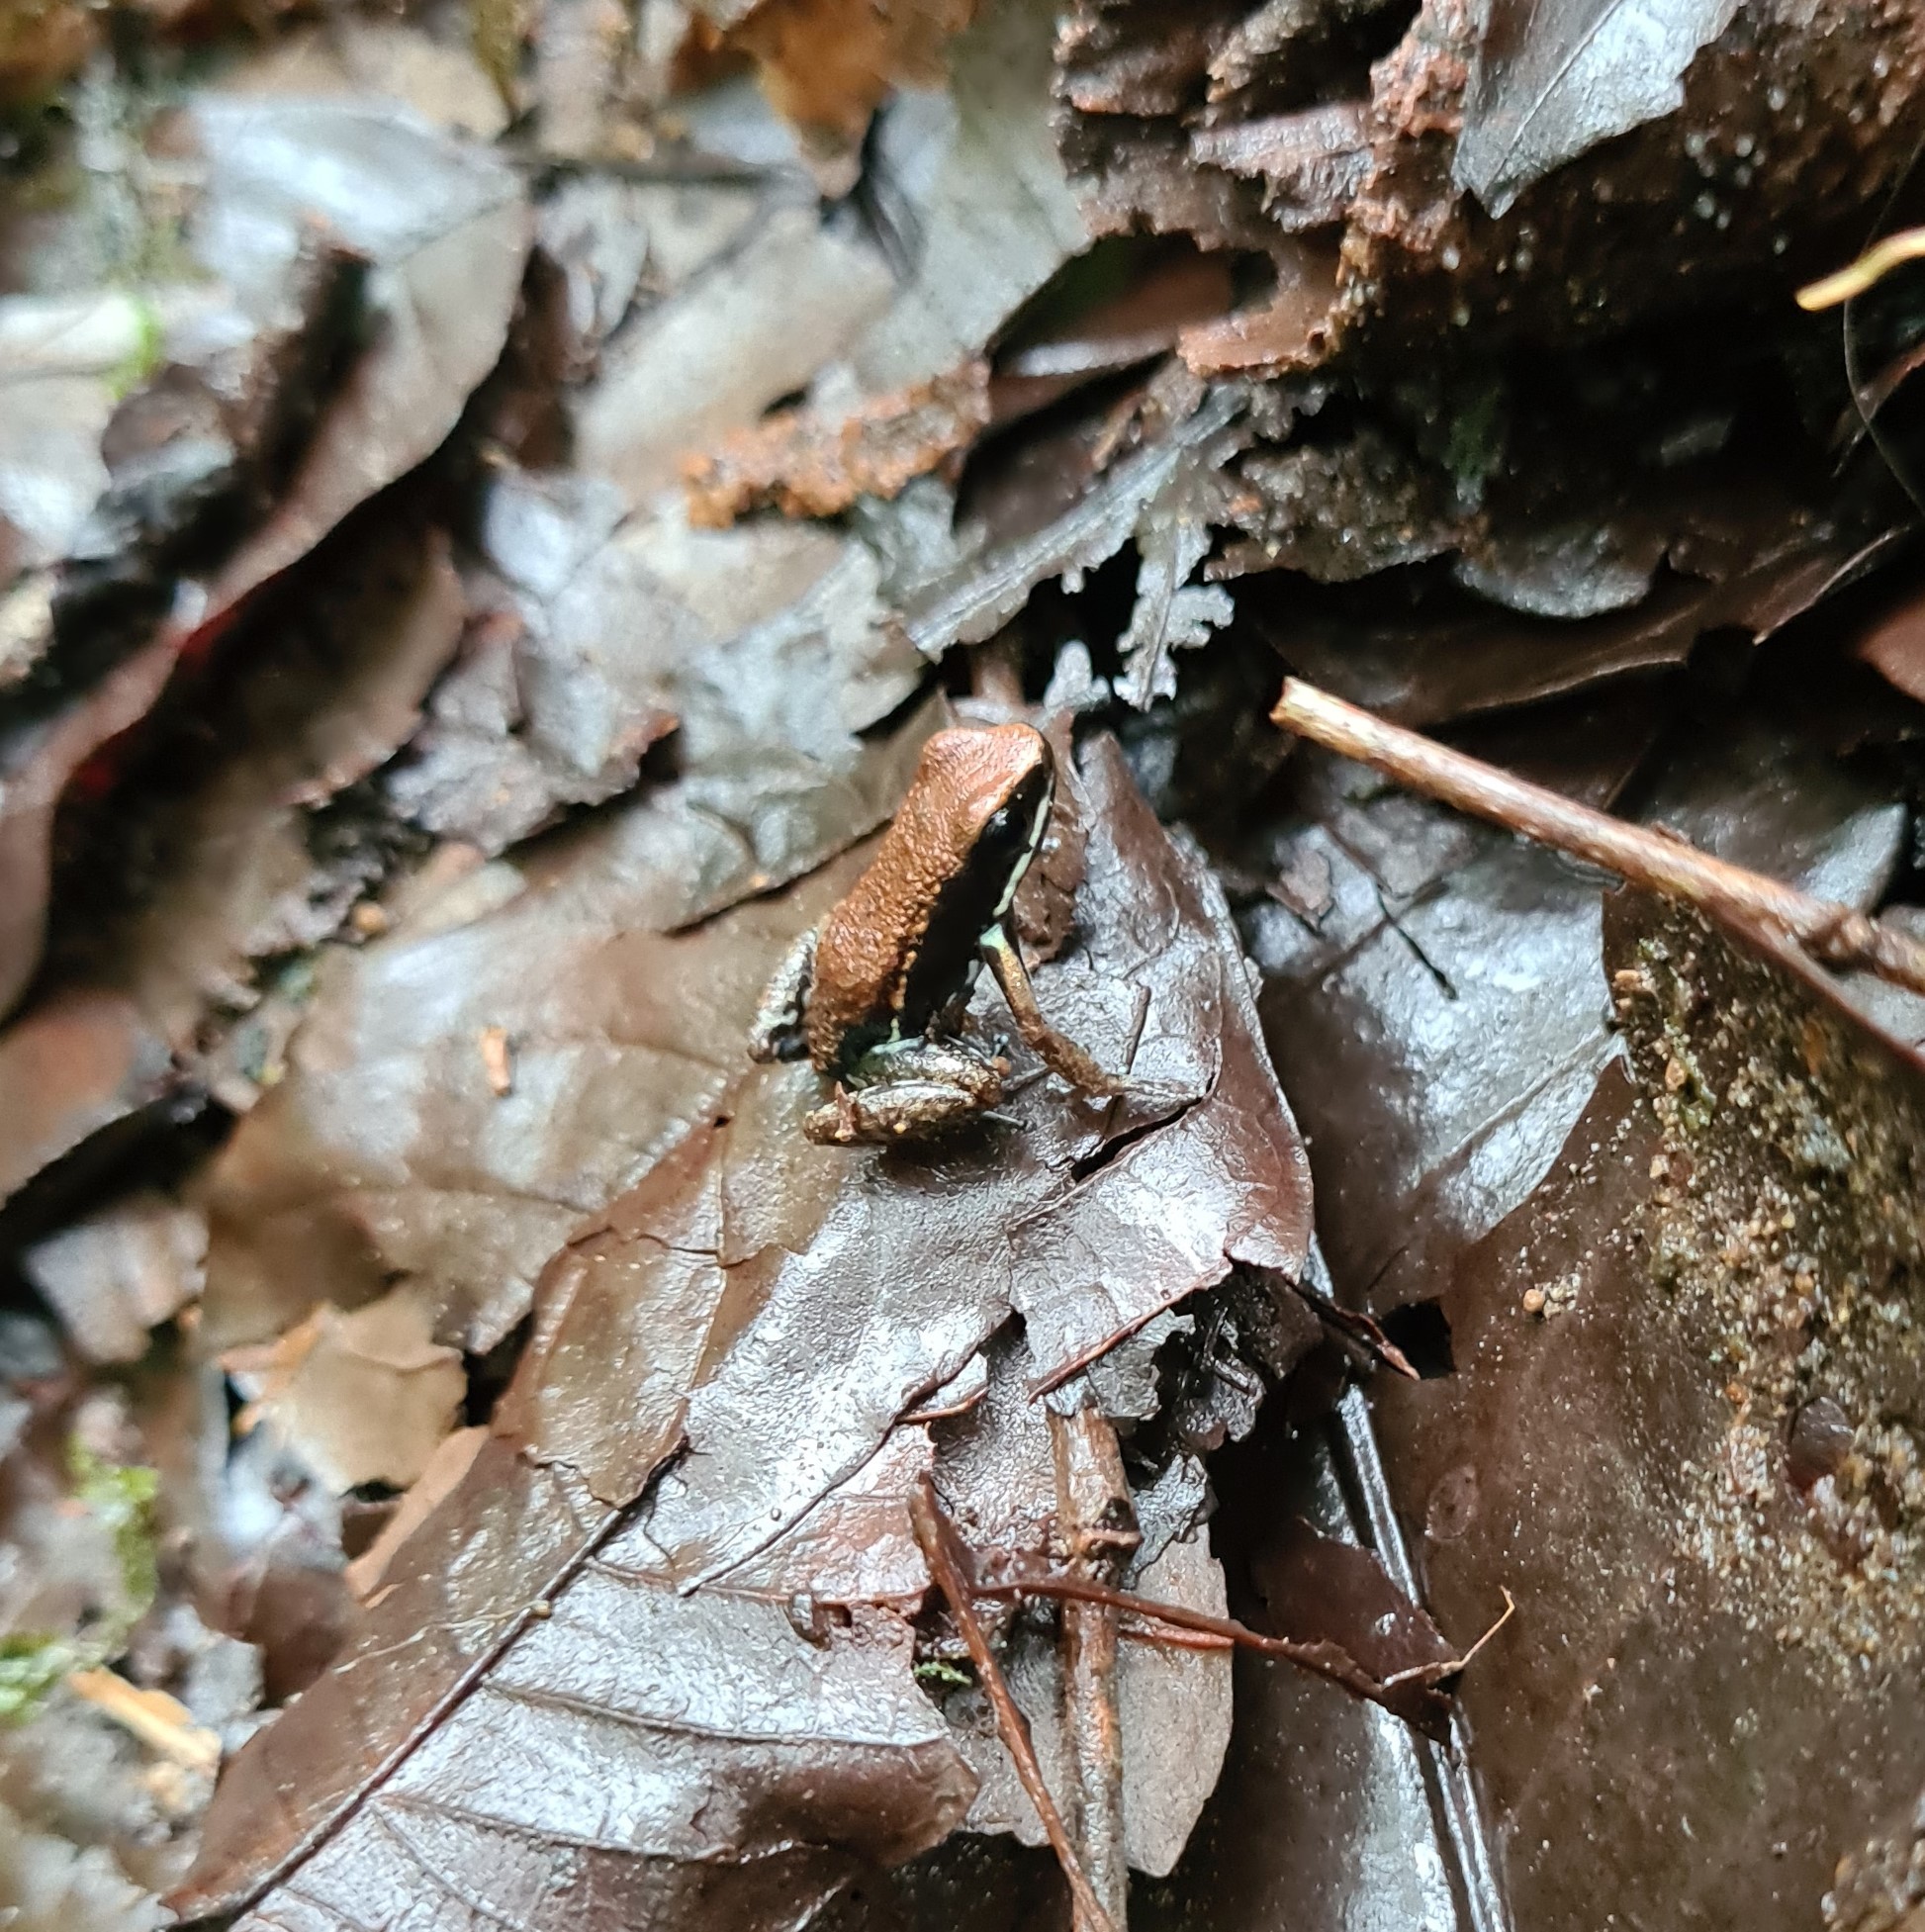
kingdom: Animalia
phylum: Chordata
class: Amphibia
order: Anura
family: Dendrobatidae
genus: Epipedobates
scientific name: Epipedobates boulengeri
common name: Marbled poison-arrow frog
